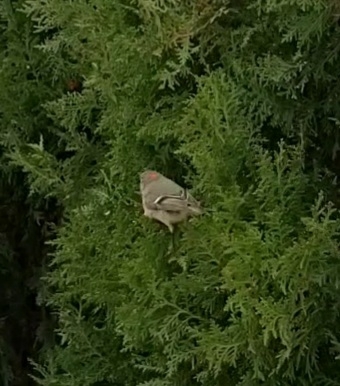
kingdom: Animalia
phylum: Chordata
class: Aves
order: Passeriformes
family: Regulidae
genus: Regulus
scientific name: Regulus calendula
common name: Ruby-crowned kinglet
